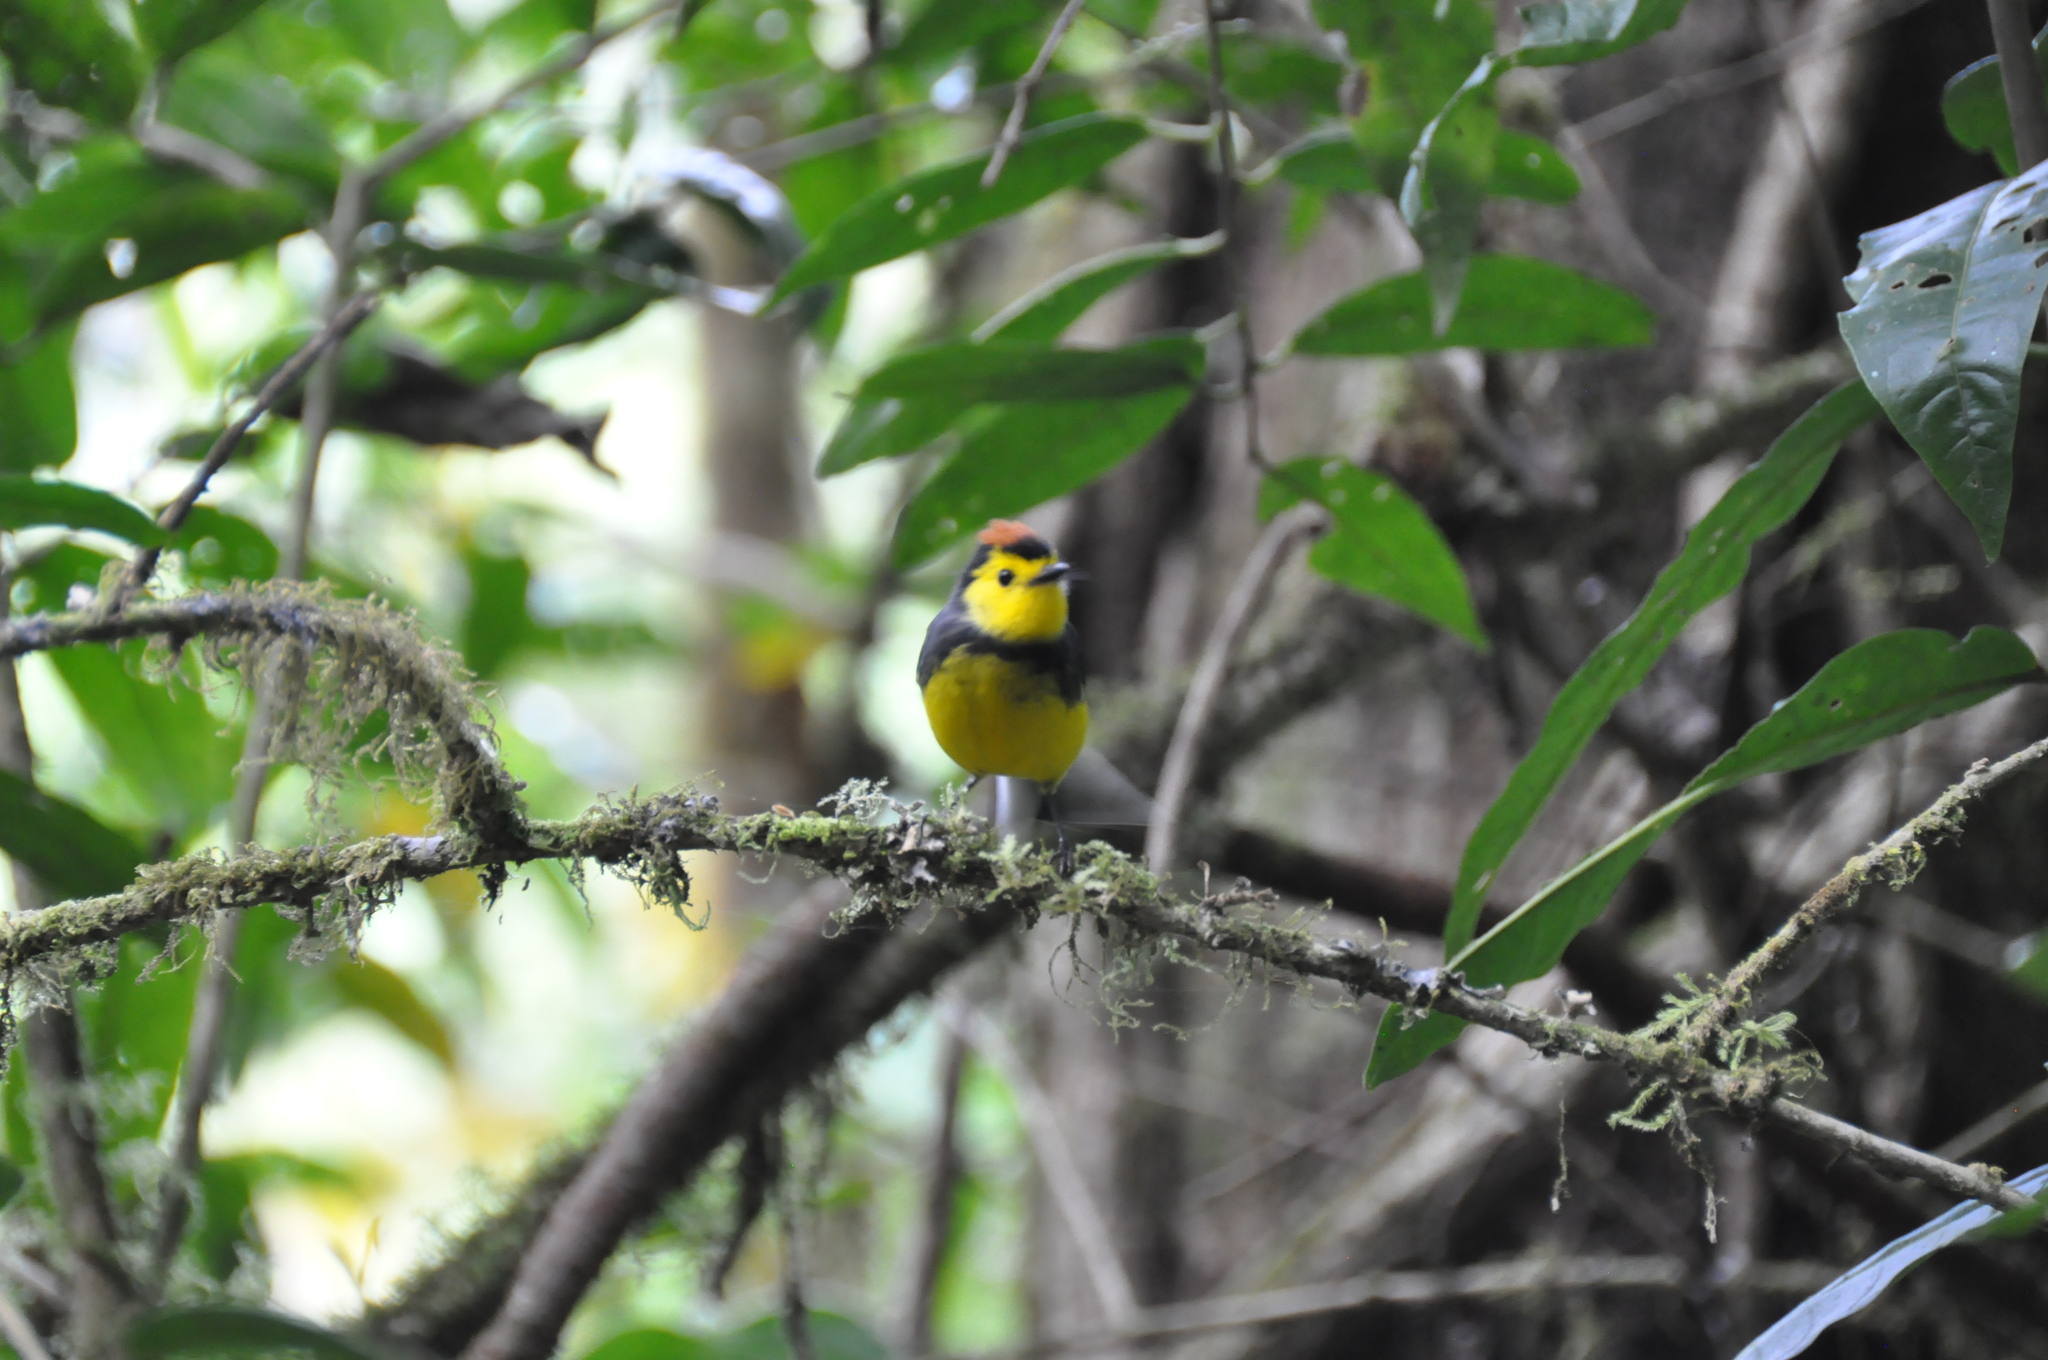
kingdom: Animalia
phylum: Chordata
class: Aves
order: Passeriformes
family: Parulidae
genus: Myioborus
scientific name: Myioborus torquatus
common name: Collared whitestart
